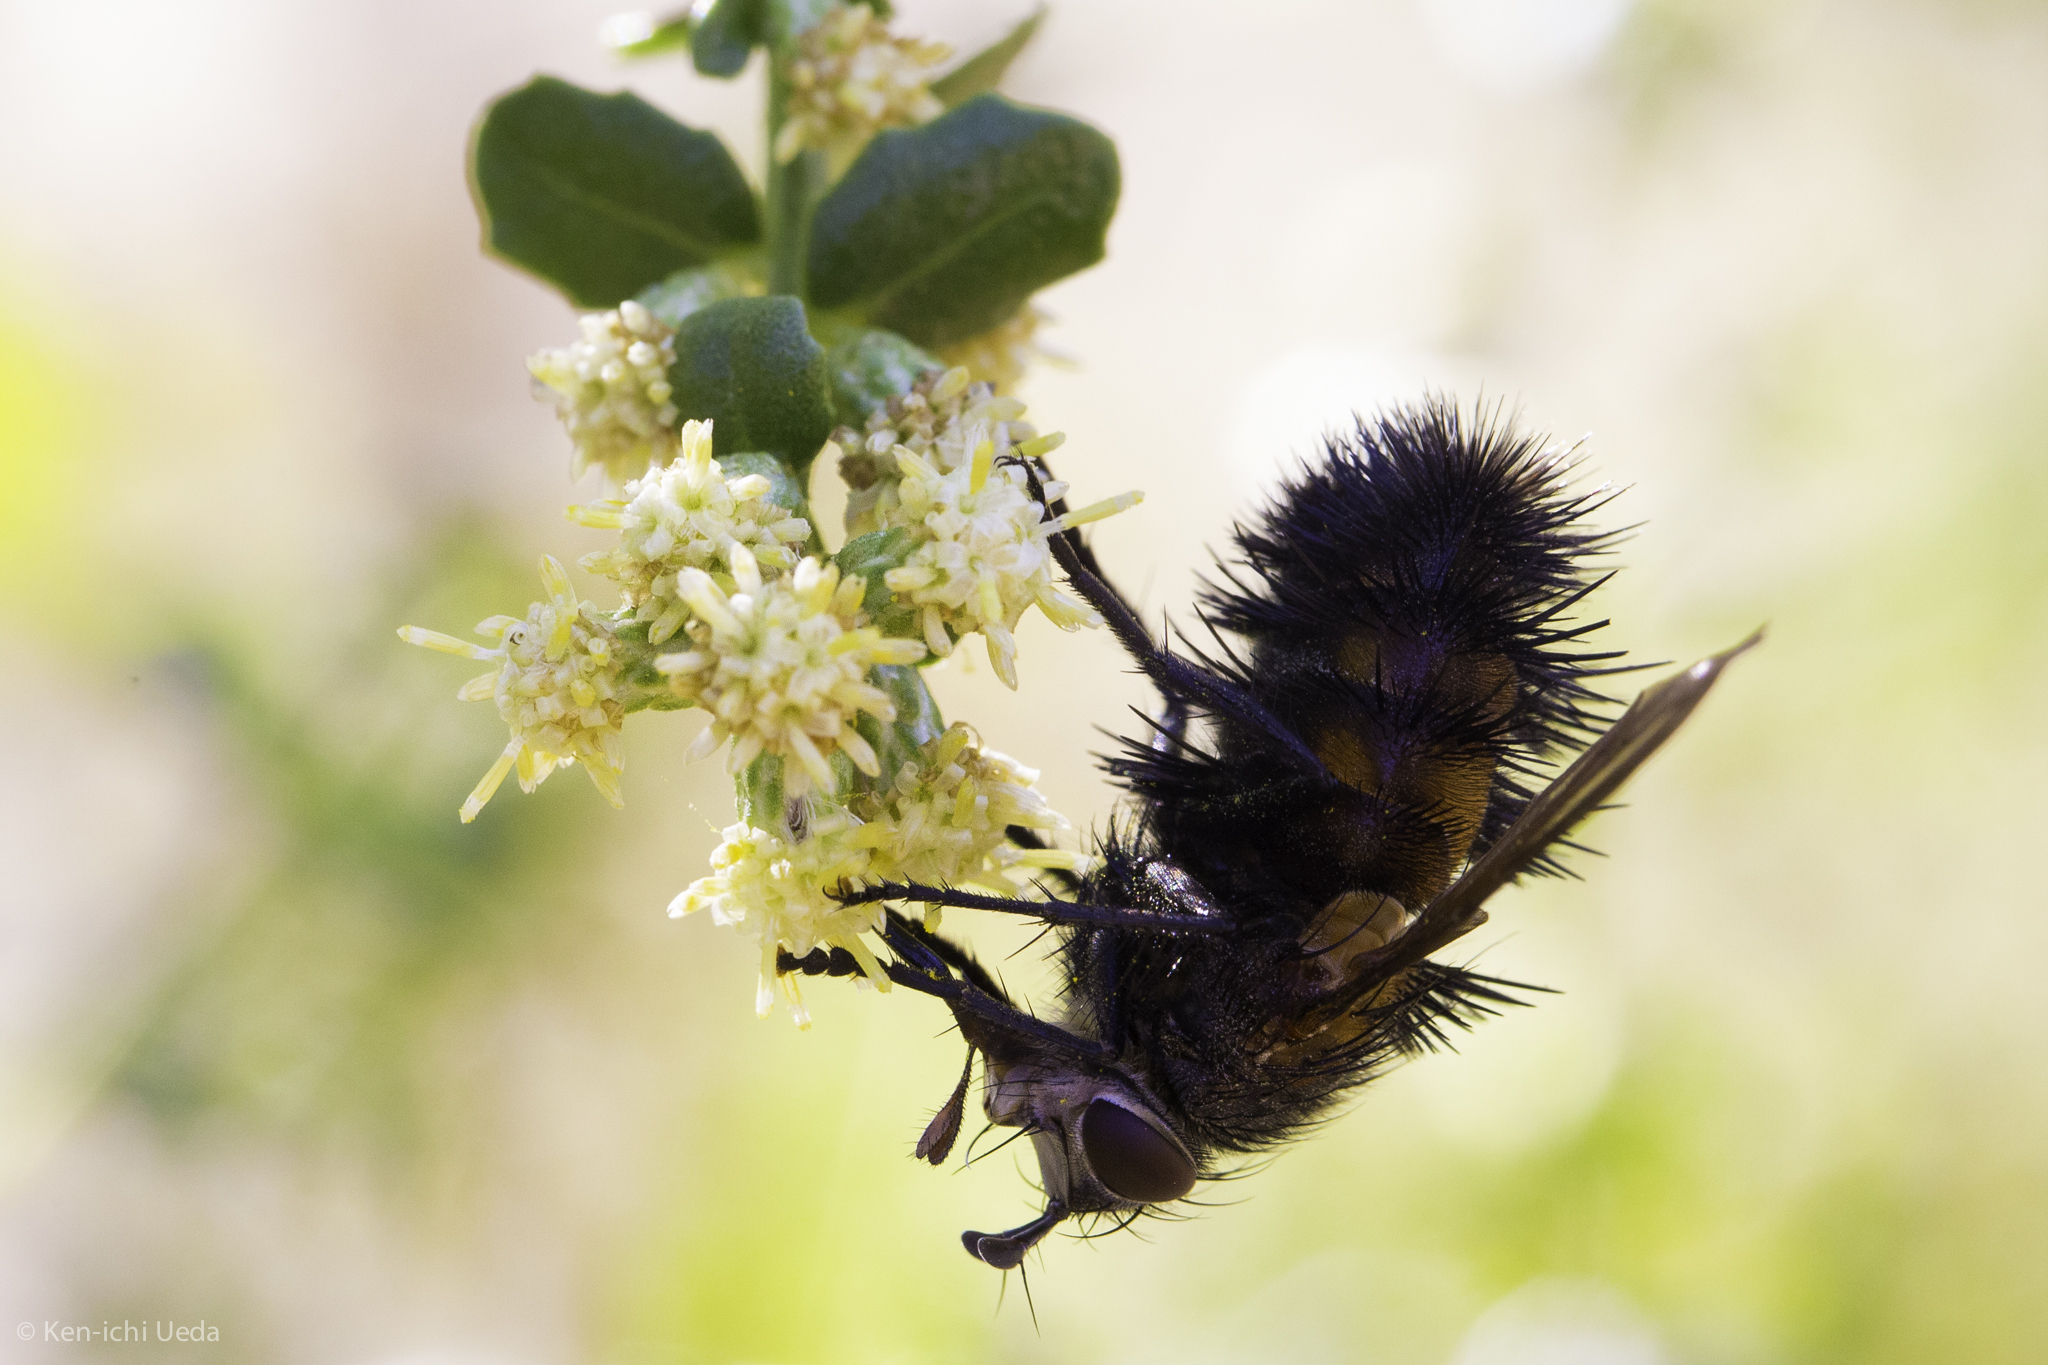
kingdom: Animalia
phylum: Arthropoda
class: Insecta
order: Diptera
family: Tachinidae
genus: Paradejeania
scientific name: Paradejeania rutilioides
